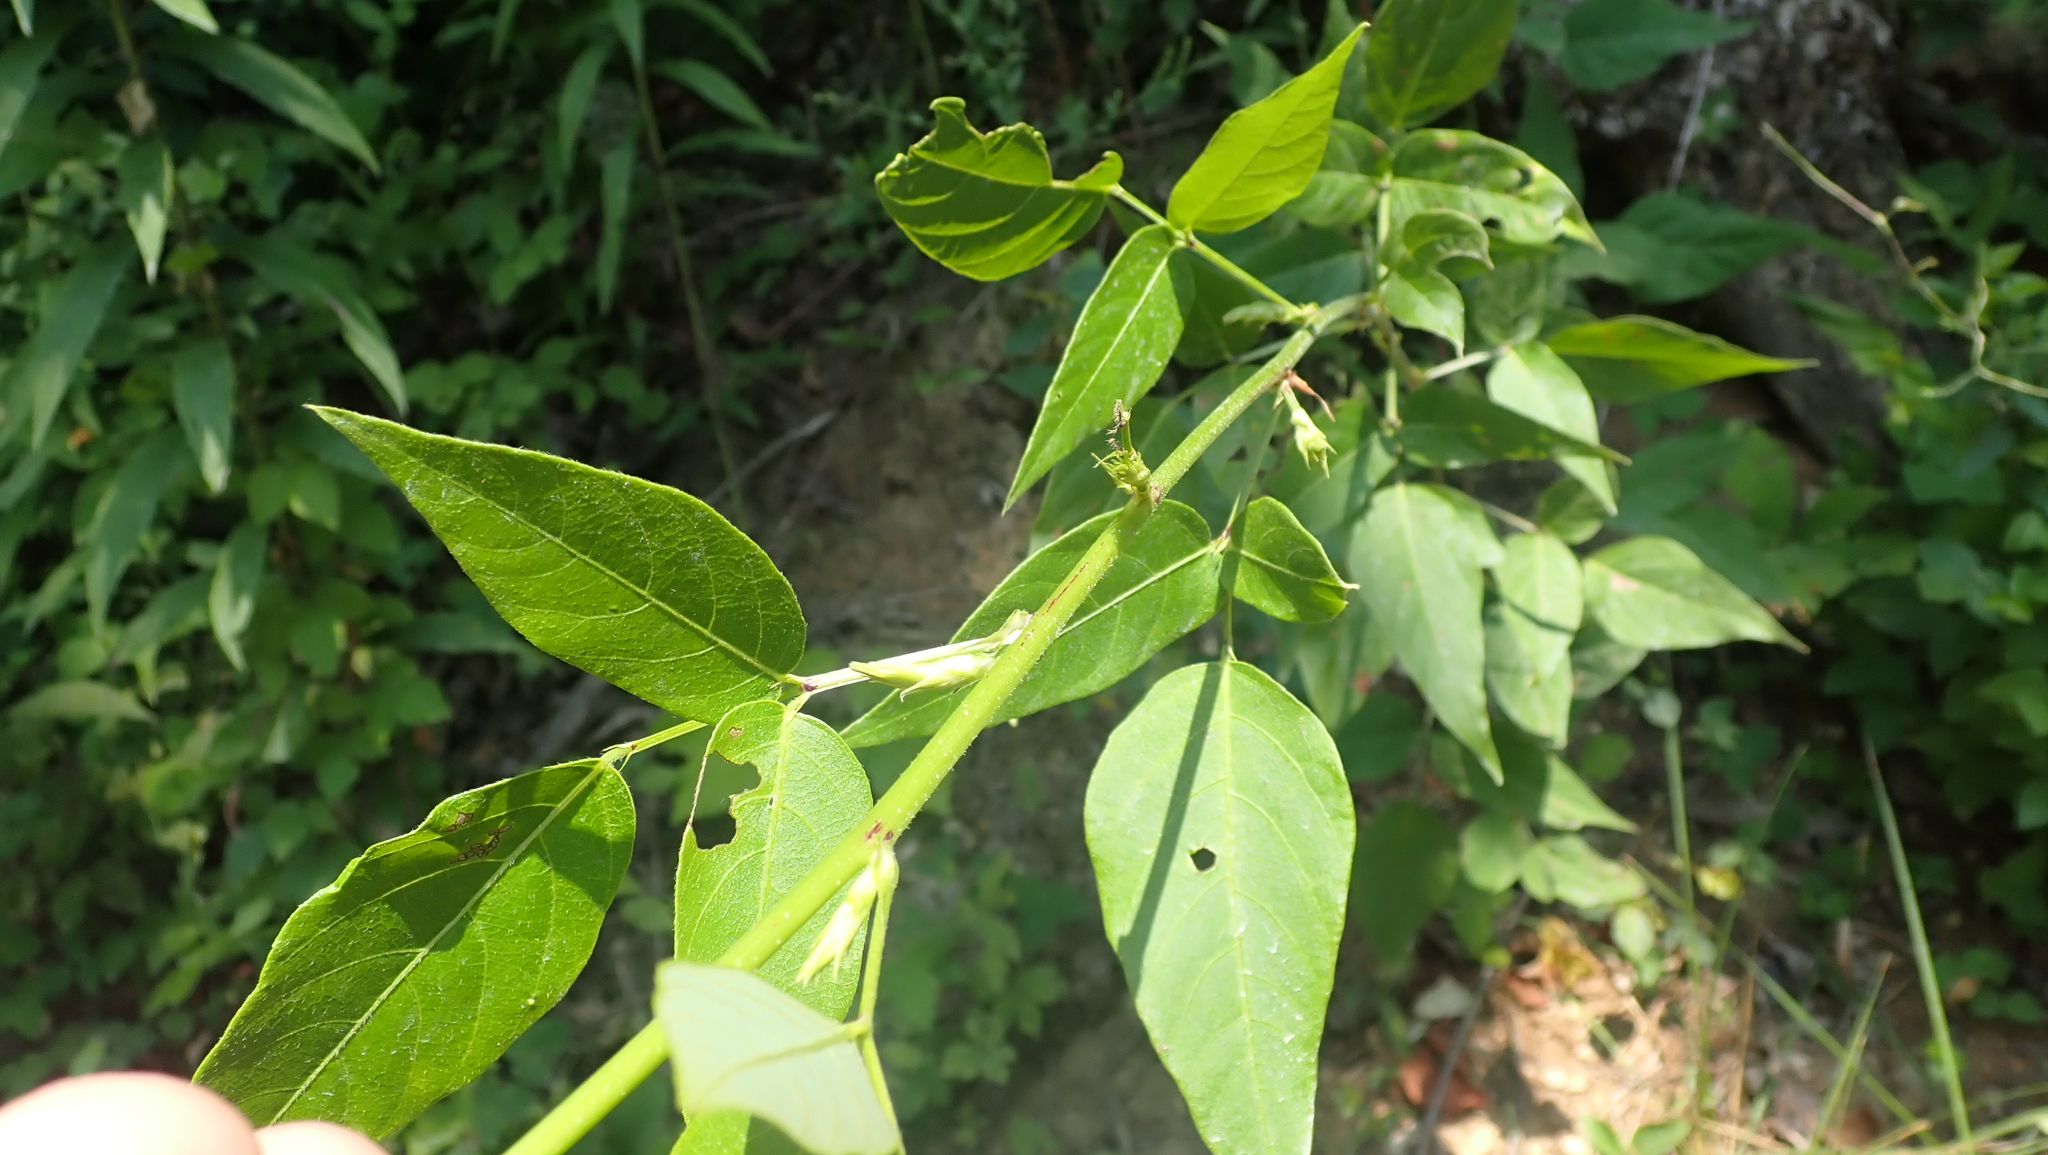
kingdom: Plantae
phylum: Tracheophyta
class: Magnoliopsida
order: Fabales
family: Fabaceae
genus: Desmodium
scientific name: Desmodium cuspidatum
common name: Big tick trefoil
